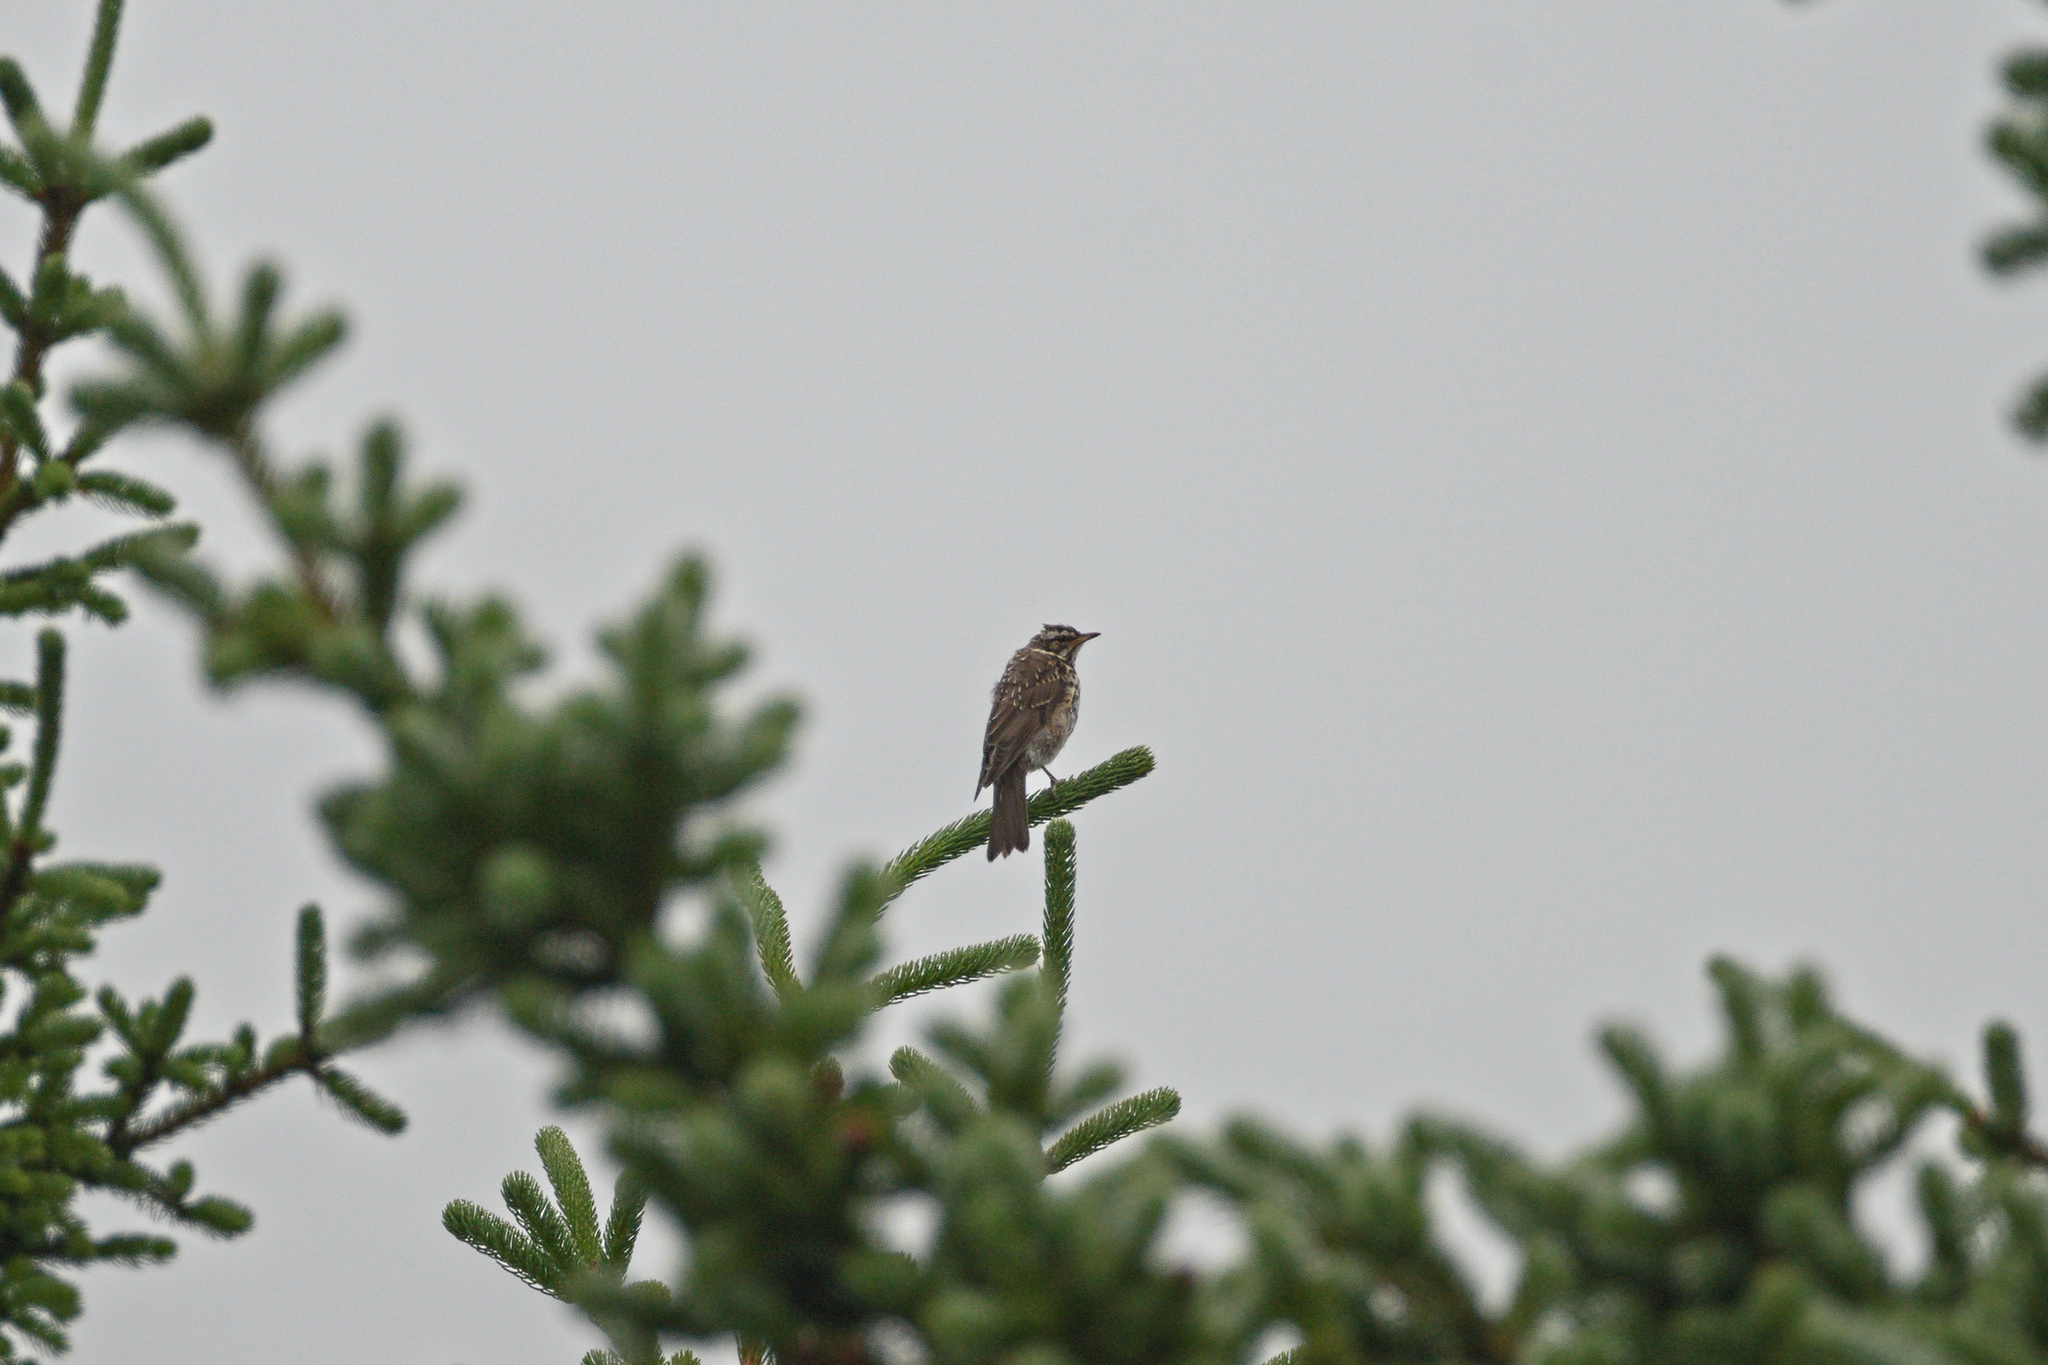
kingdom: Animalia
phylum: Chordata
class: Aves
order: Passeriformes
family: Turdidae
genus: Turdus
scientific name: Turdus iliacus
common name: Redwing
